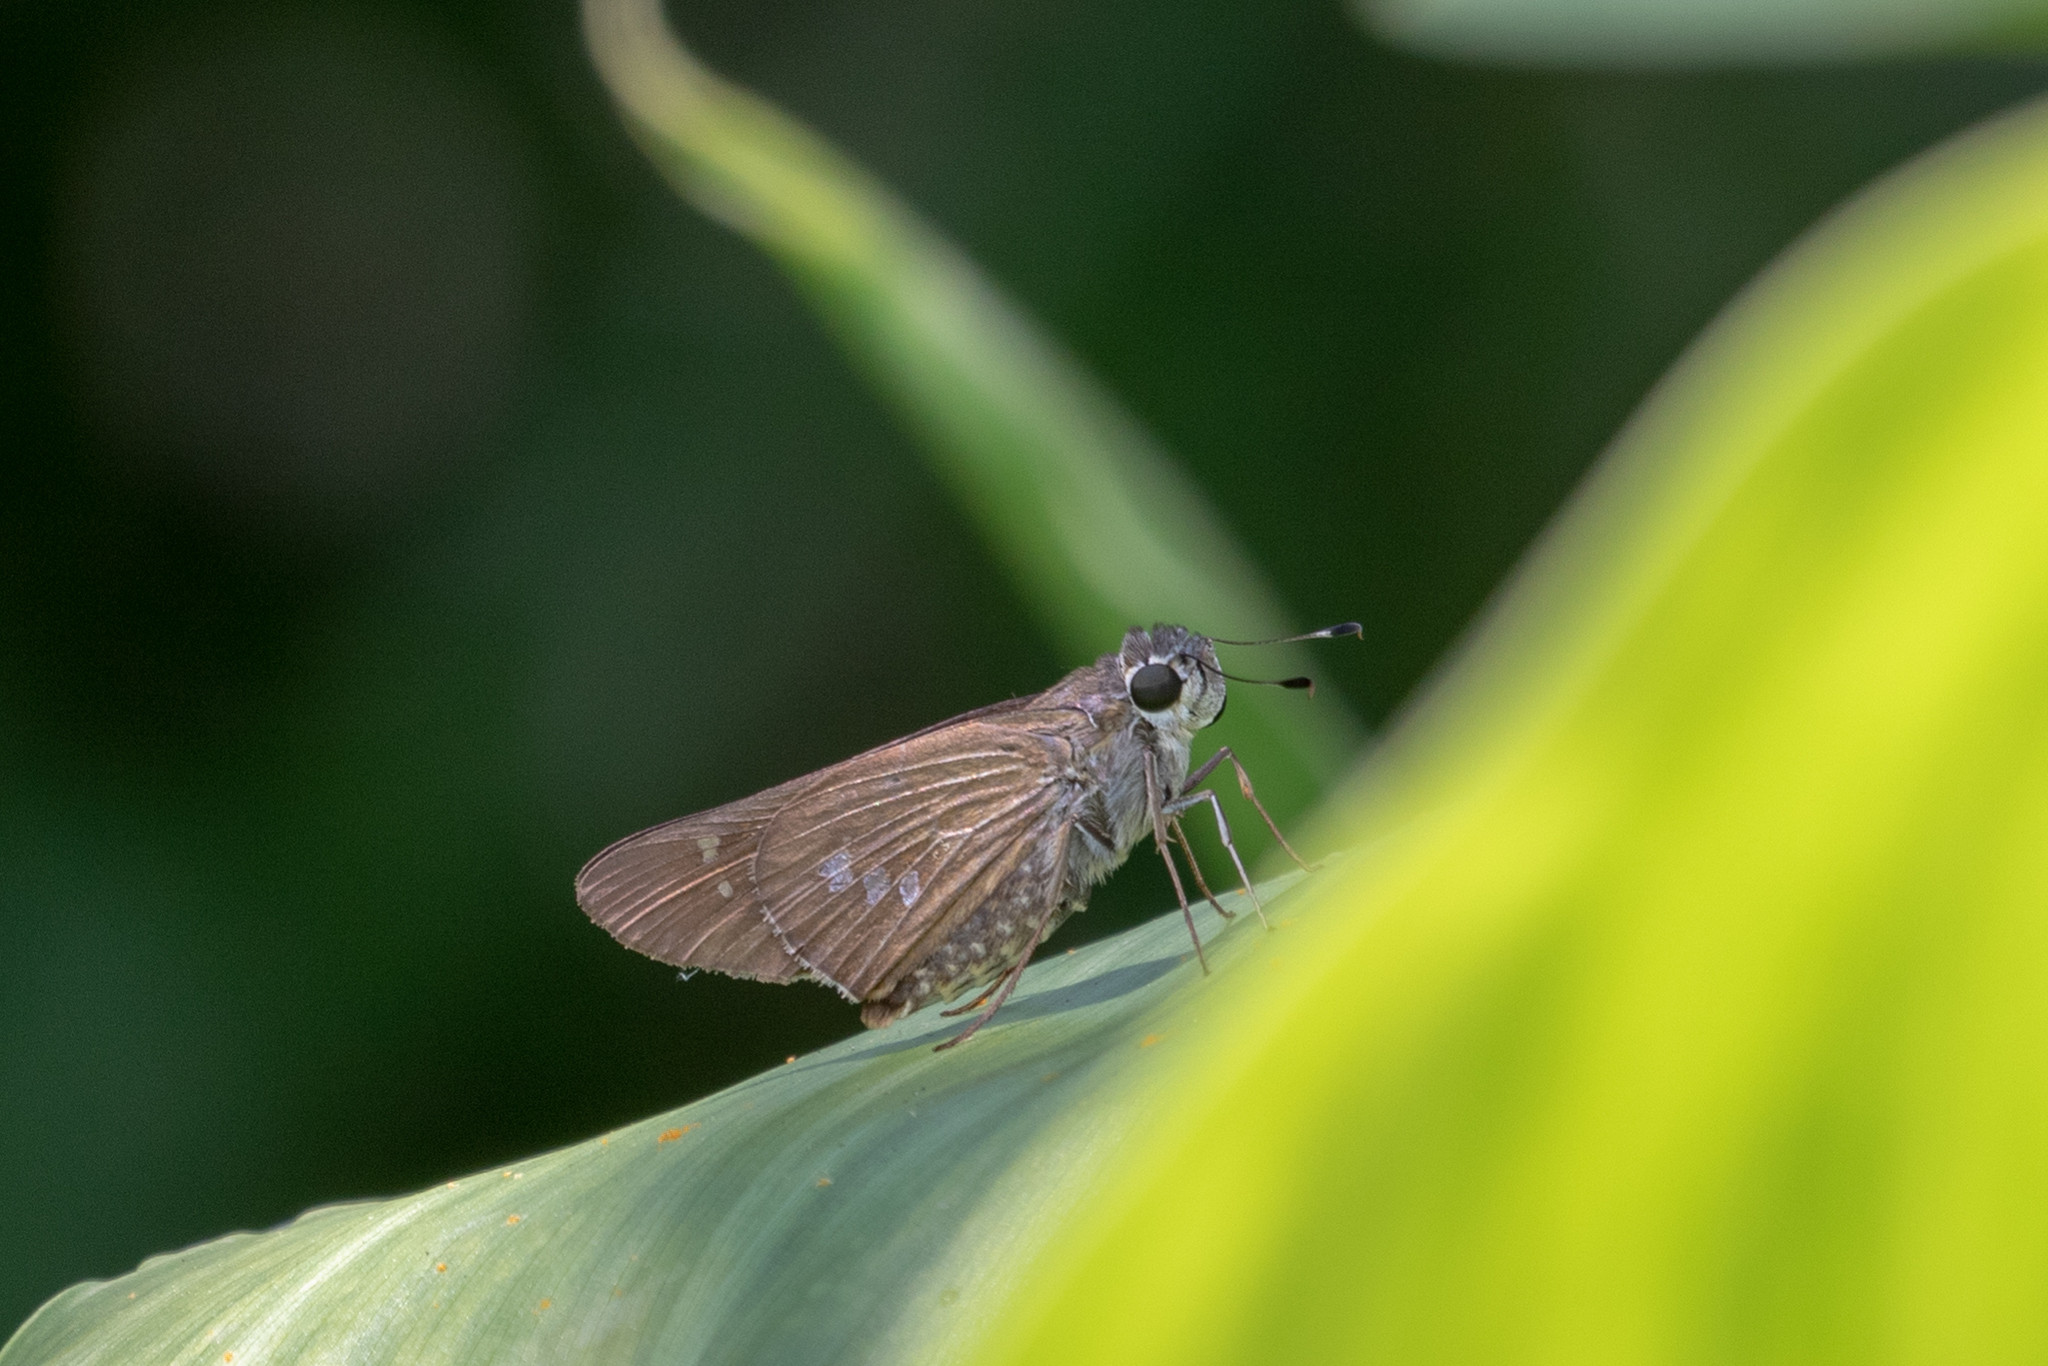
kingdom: Animalia
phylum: Arthropoda
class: Insecta
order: Lepidoptera
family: Hesperiidae
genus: Calpodes
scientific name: Calpodes ethlius
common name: Brazilian skipper
